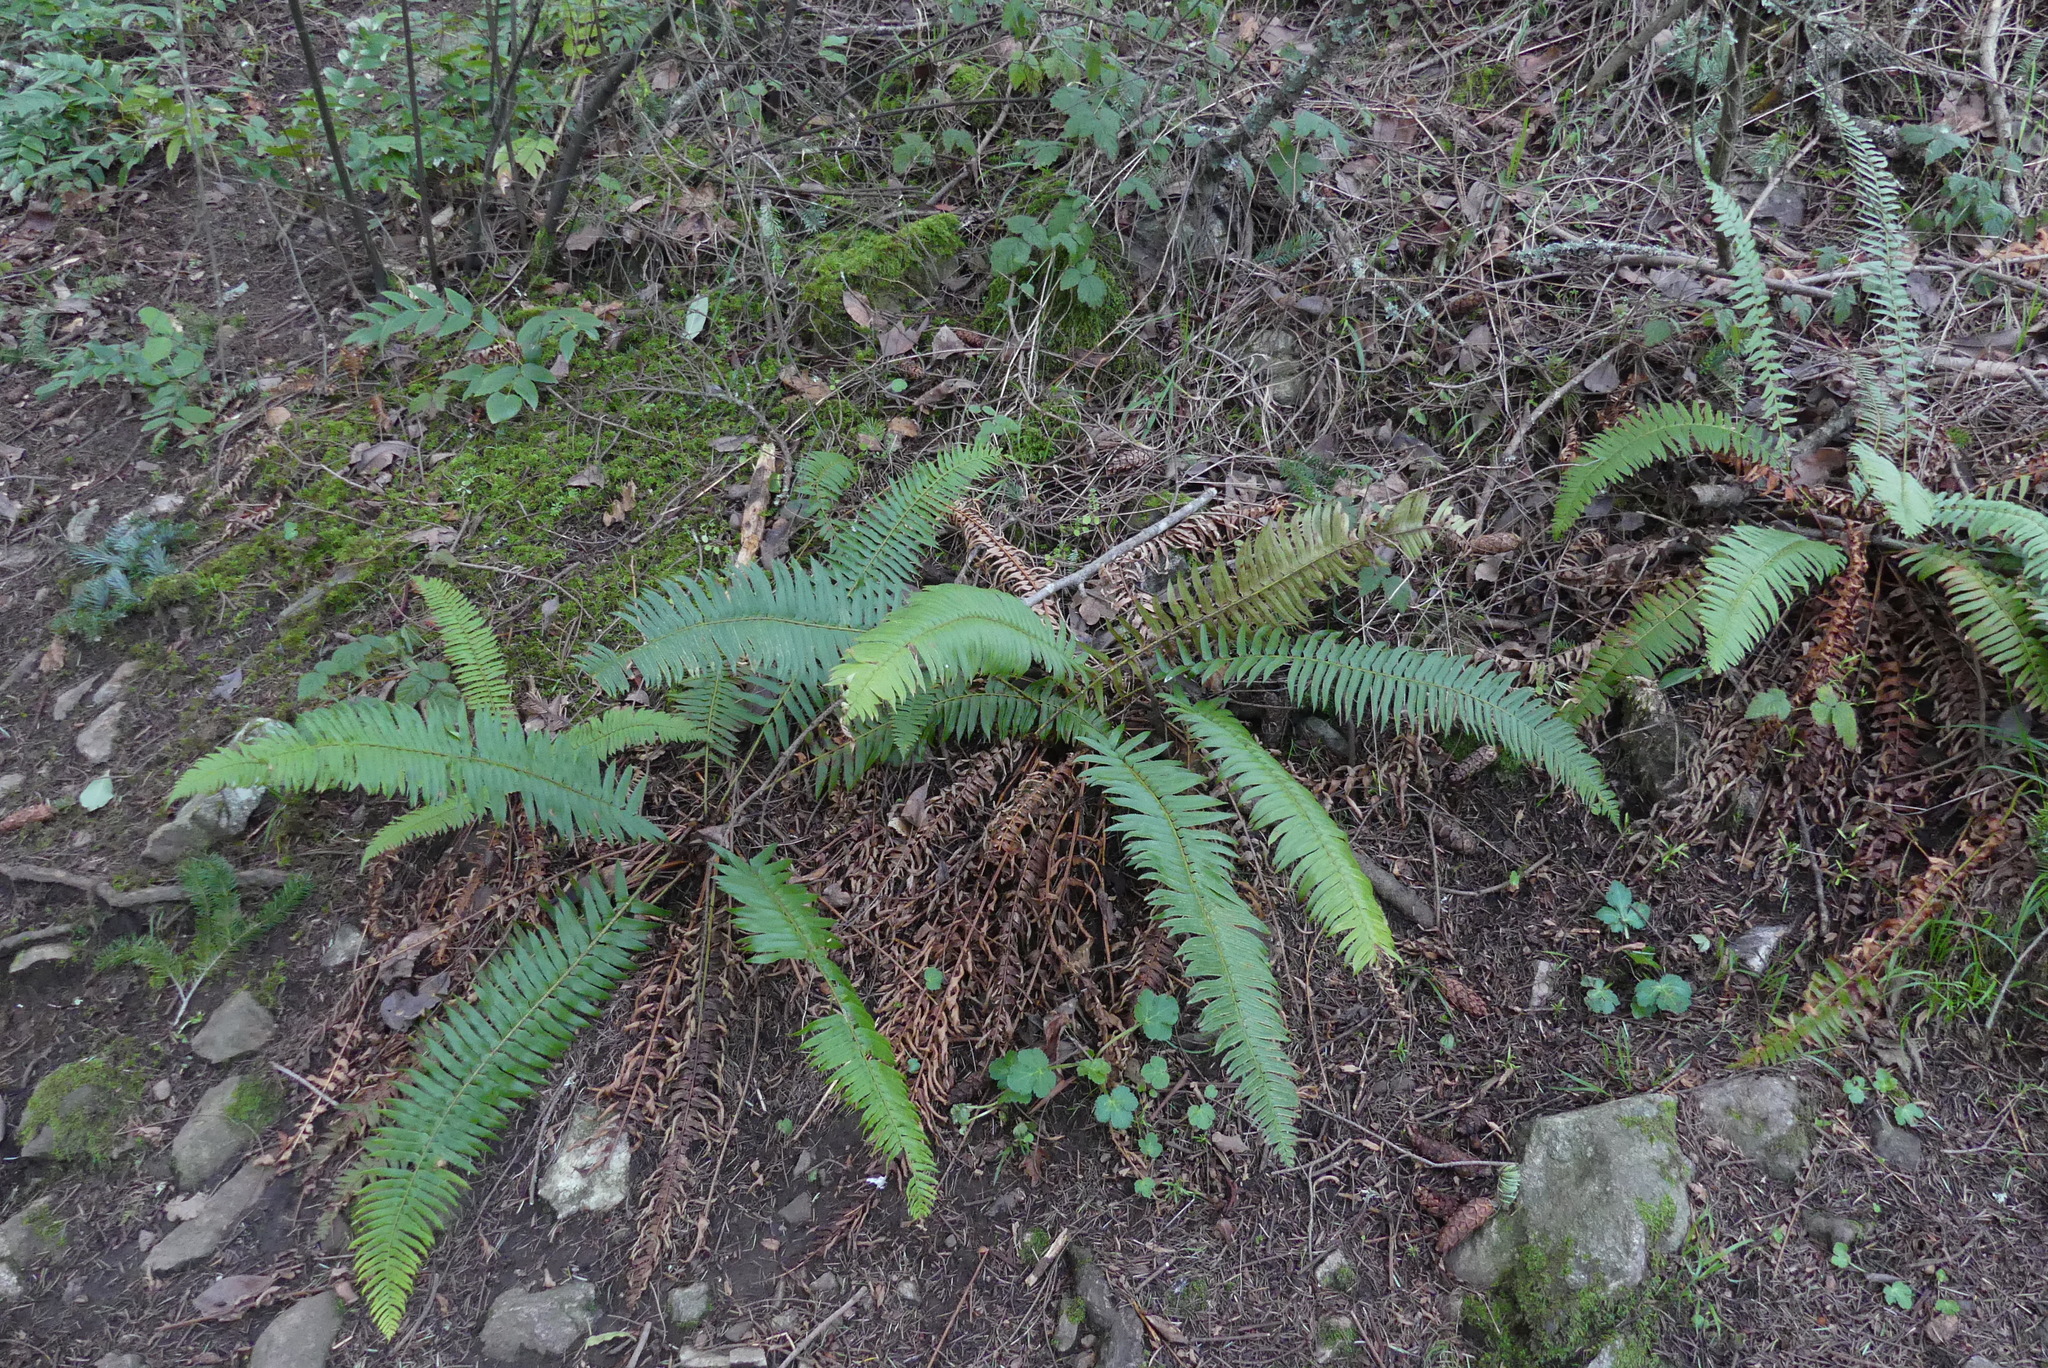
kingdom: Plantae
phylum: Tracheophyta
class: Polypodiopsida
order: Polypodiales
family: Dryopteridaceae
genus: Polystichum
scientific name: Polystichum munitum
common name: Western sword-fern
